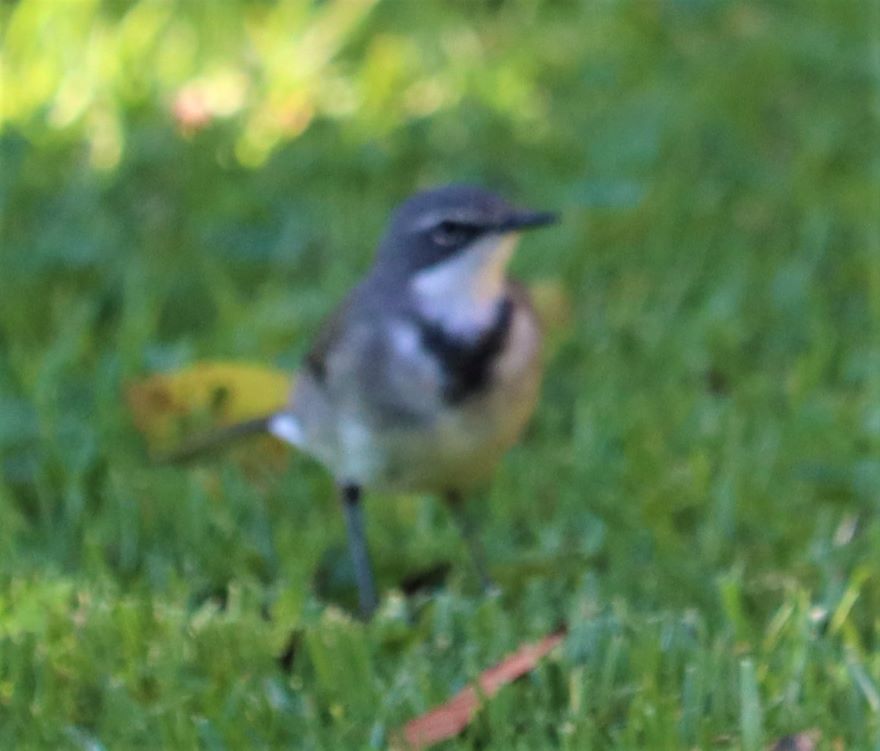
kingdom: Animalia
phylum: Chordata
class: Aves
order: Passeriformes
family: Motacillidae
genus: Motacilla
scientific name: Motacilla capensis
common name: Cape wagtail
